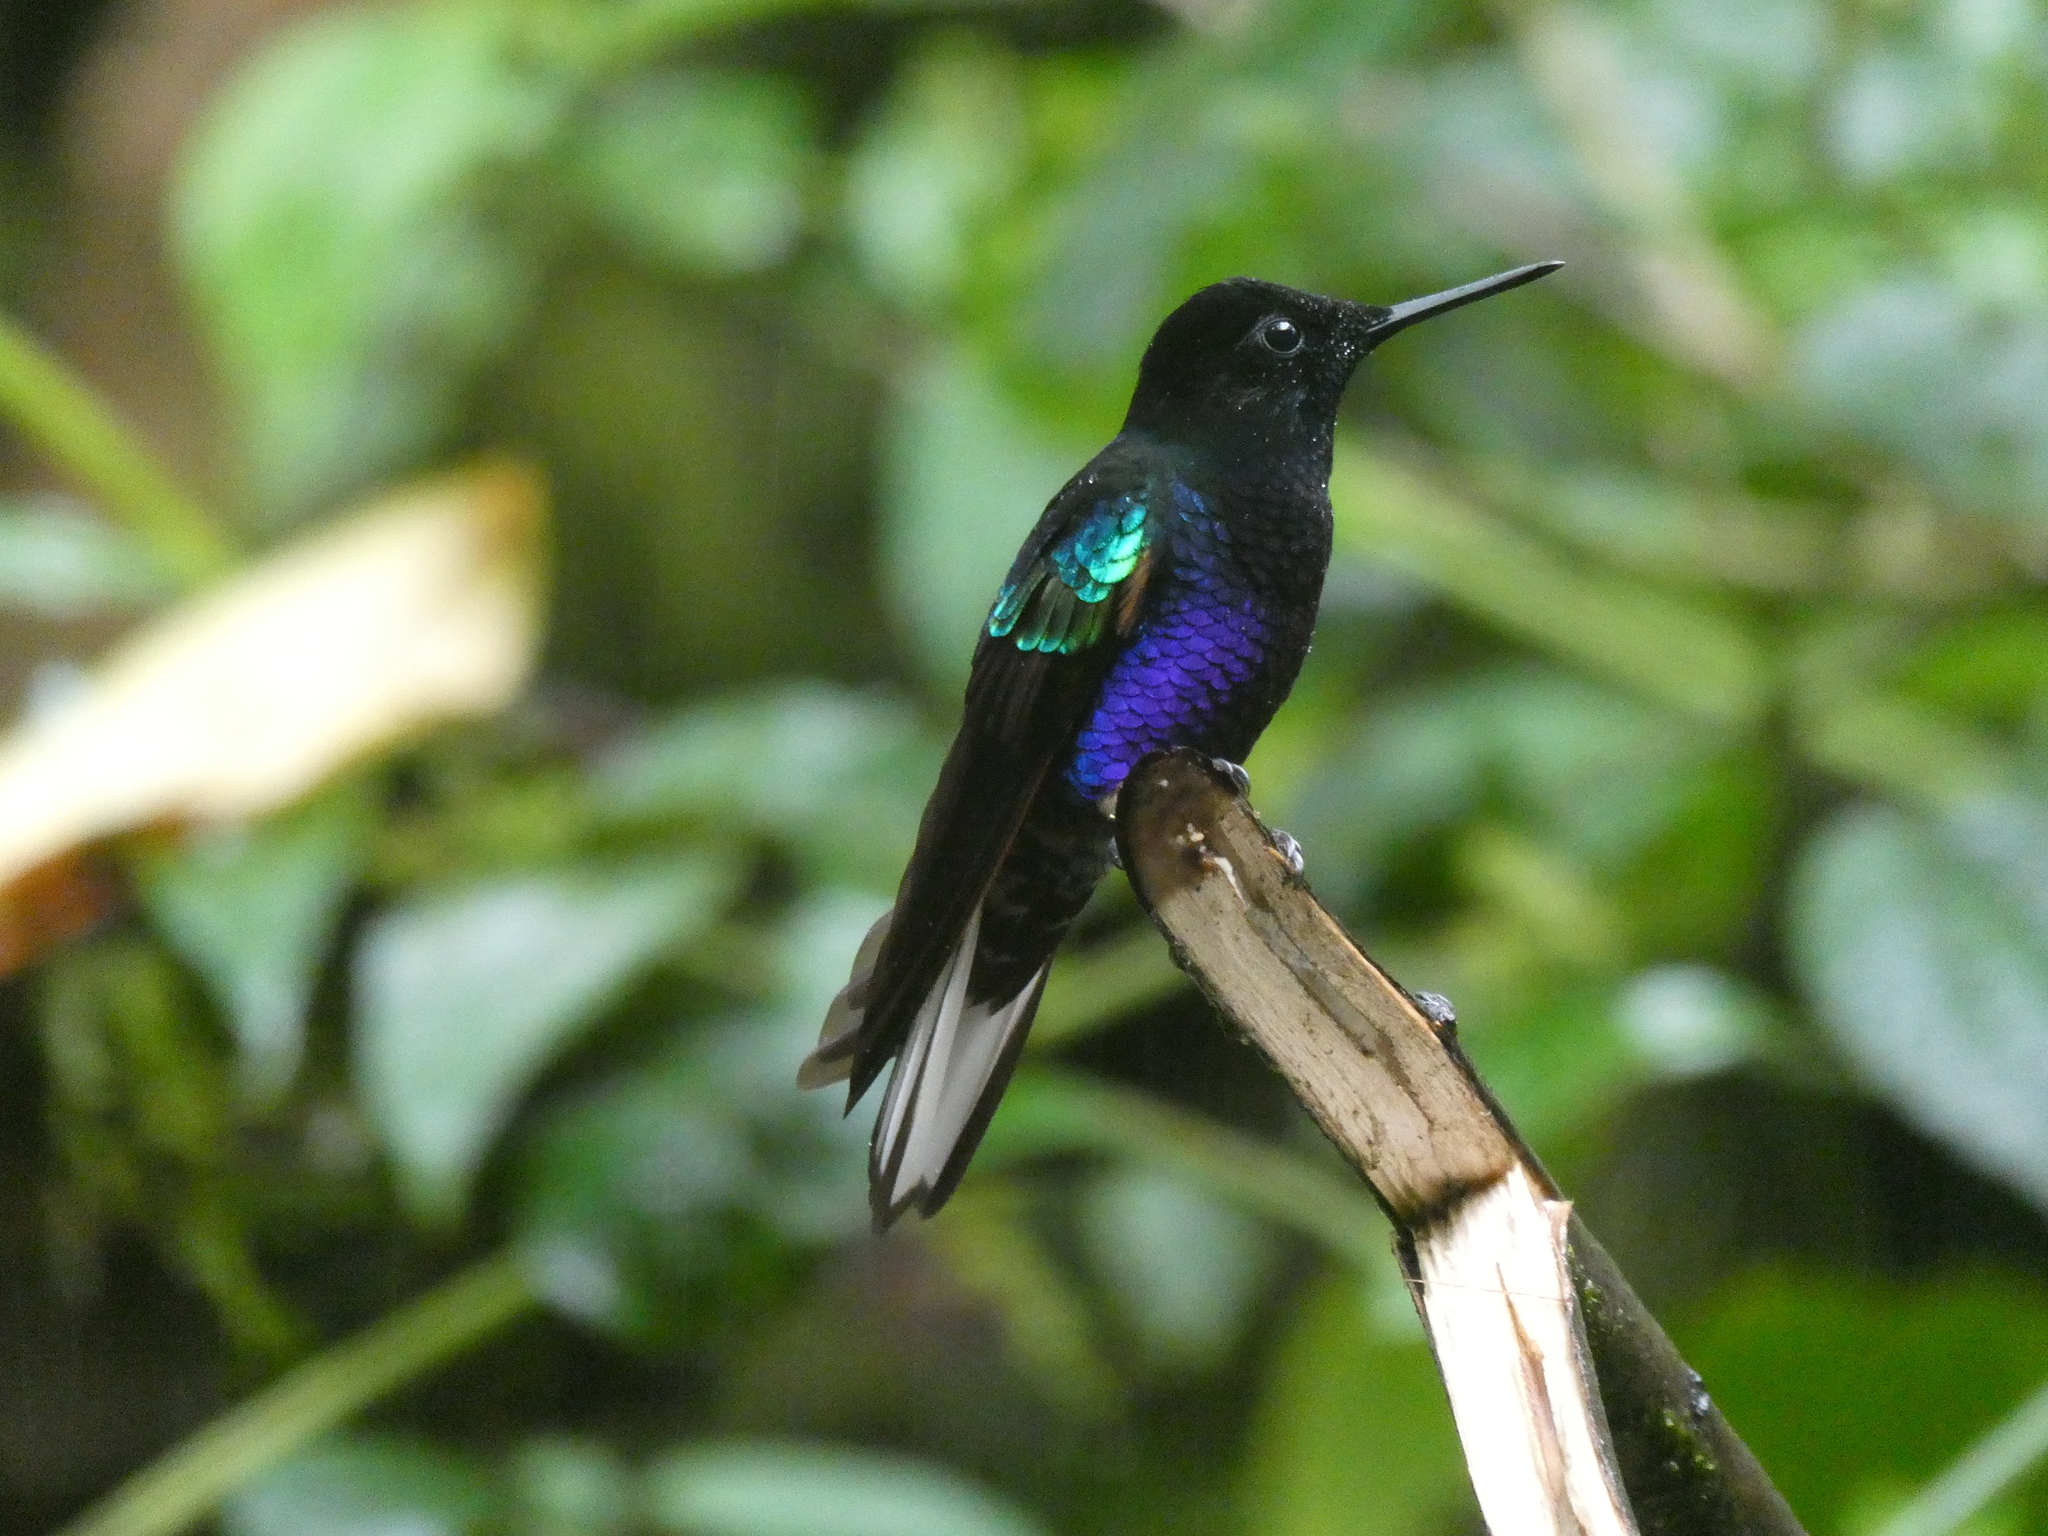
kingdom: Animalia
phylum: Chordata
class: Aves
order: Apodiformes
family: Trochilidae
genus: Boissonneaua
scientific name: Boissonneaua jardini
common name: Velvet-purple coronet
